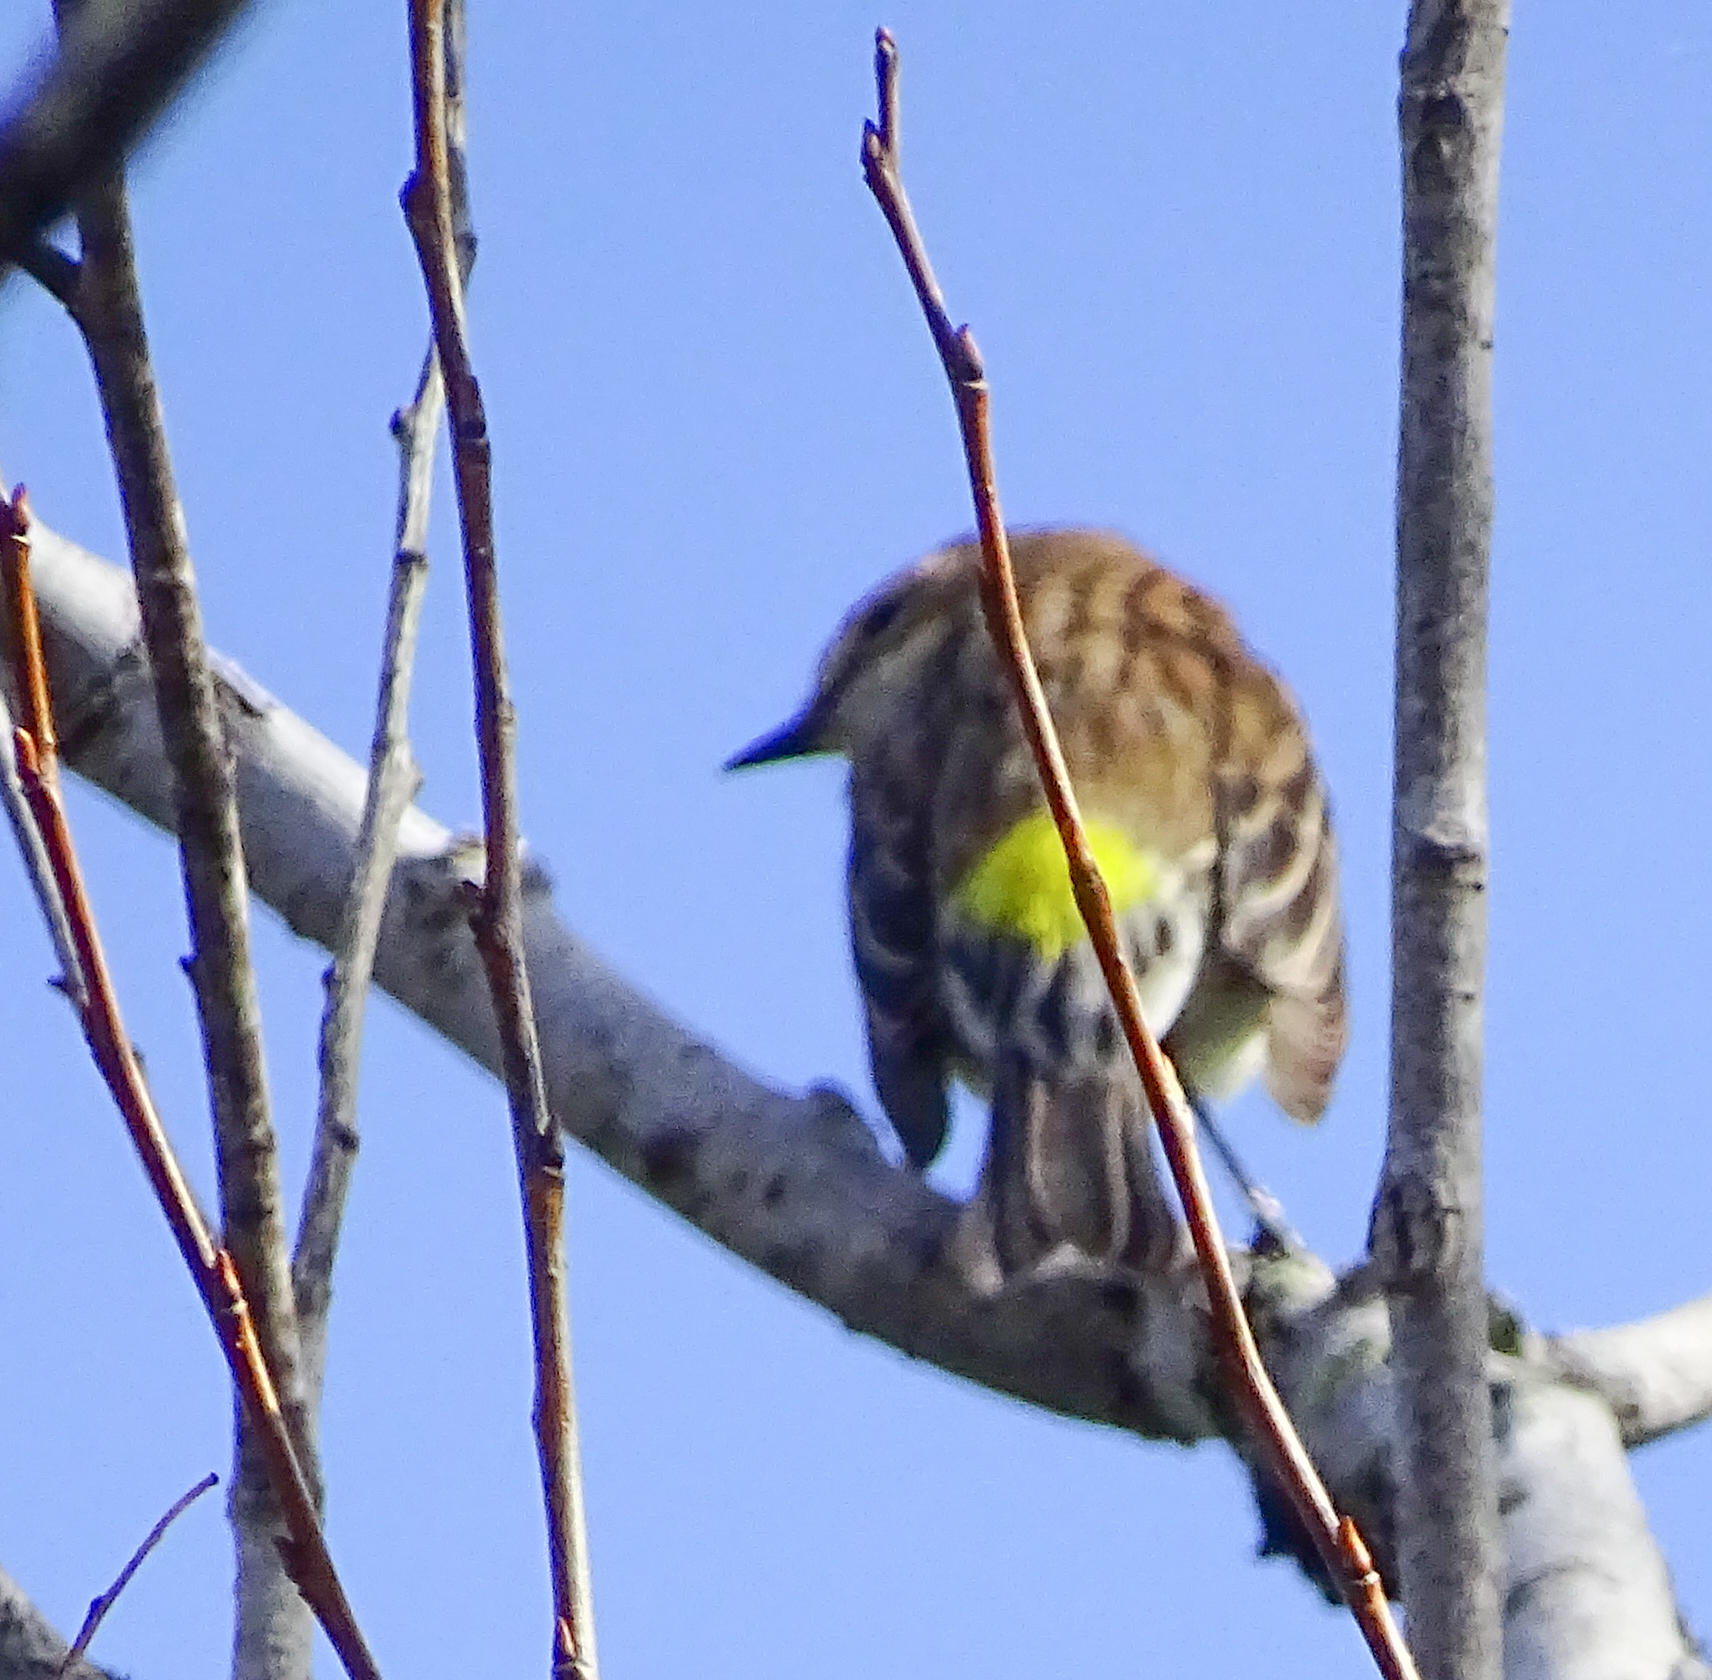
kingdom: Animalia
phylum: Chordata
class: Aves
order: Passeriformes
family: Parulidae
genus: Setophaga
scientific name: Setophaga coronata
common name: Myrtle warbler
